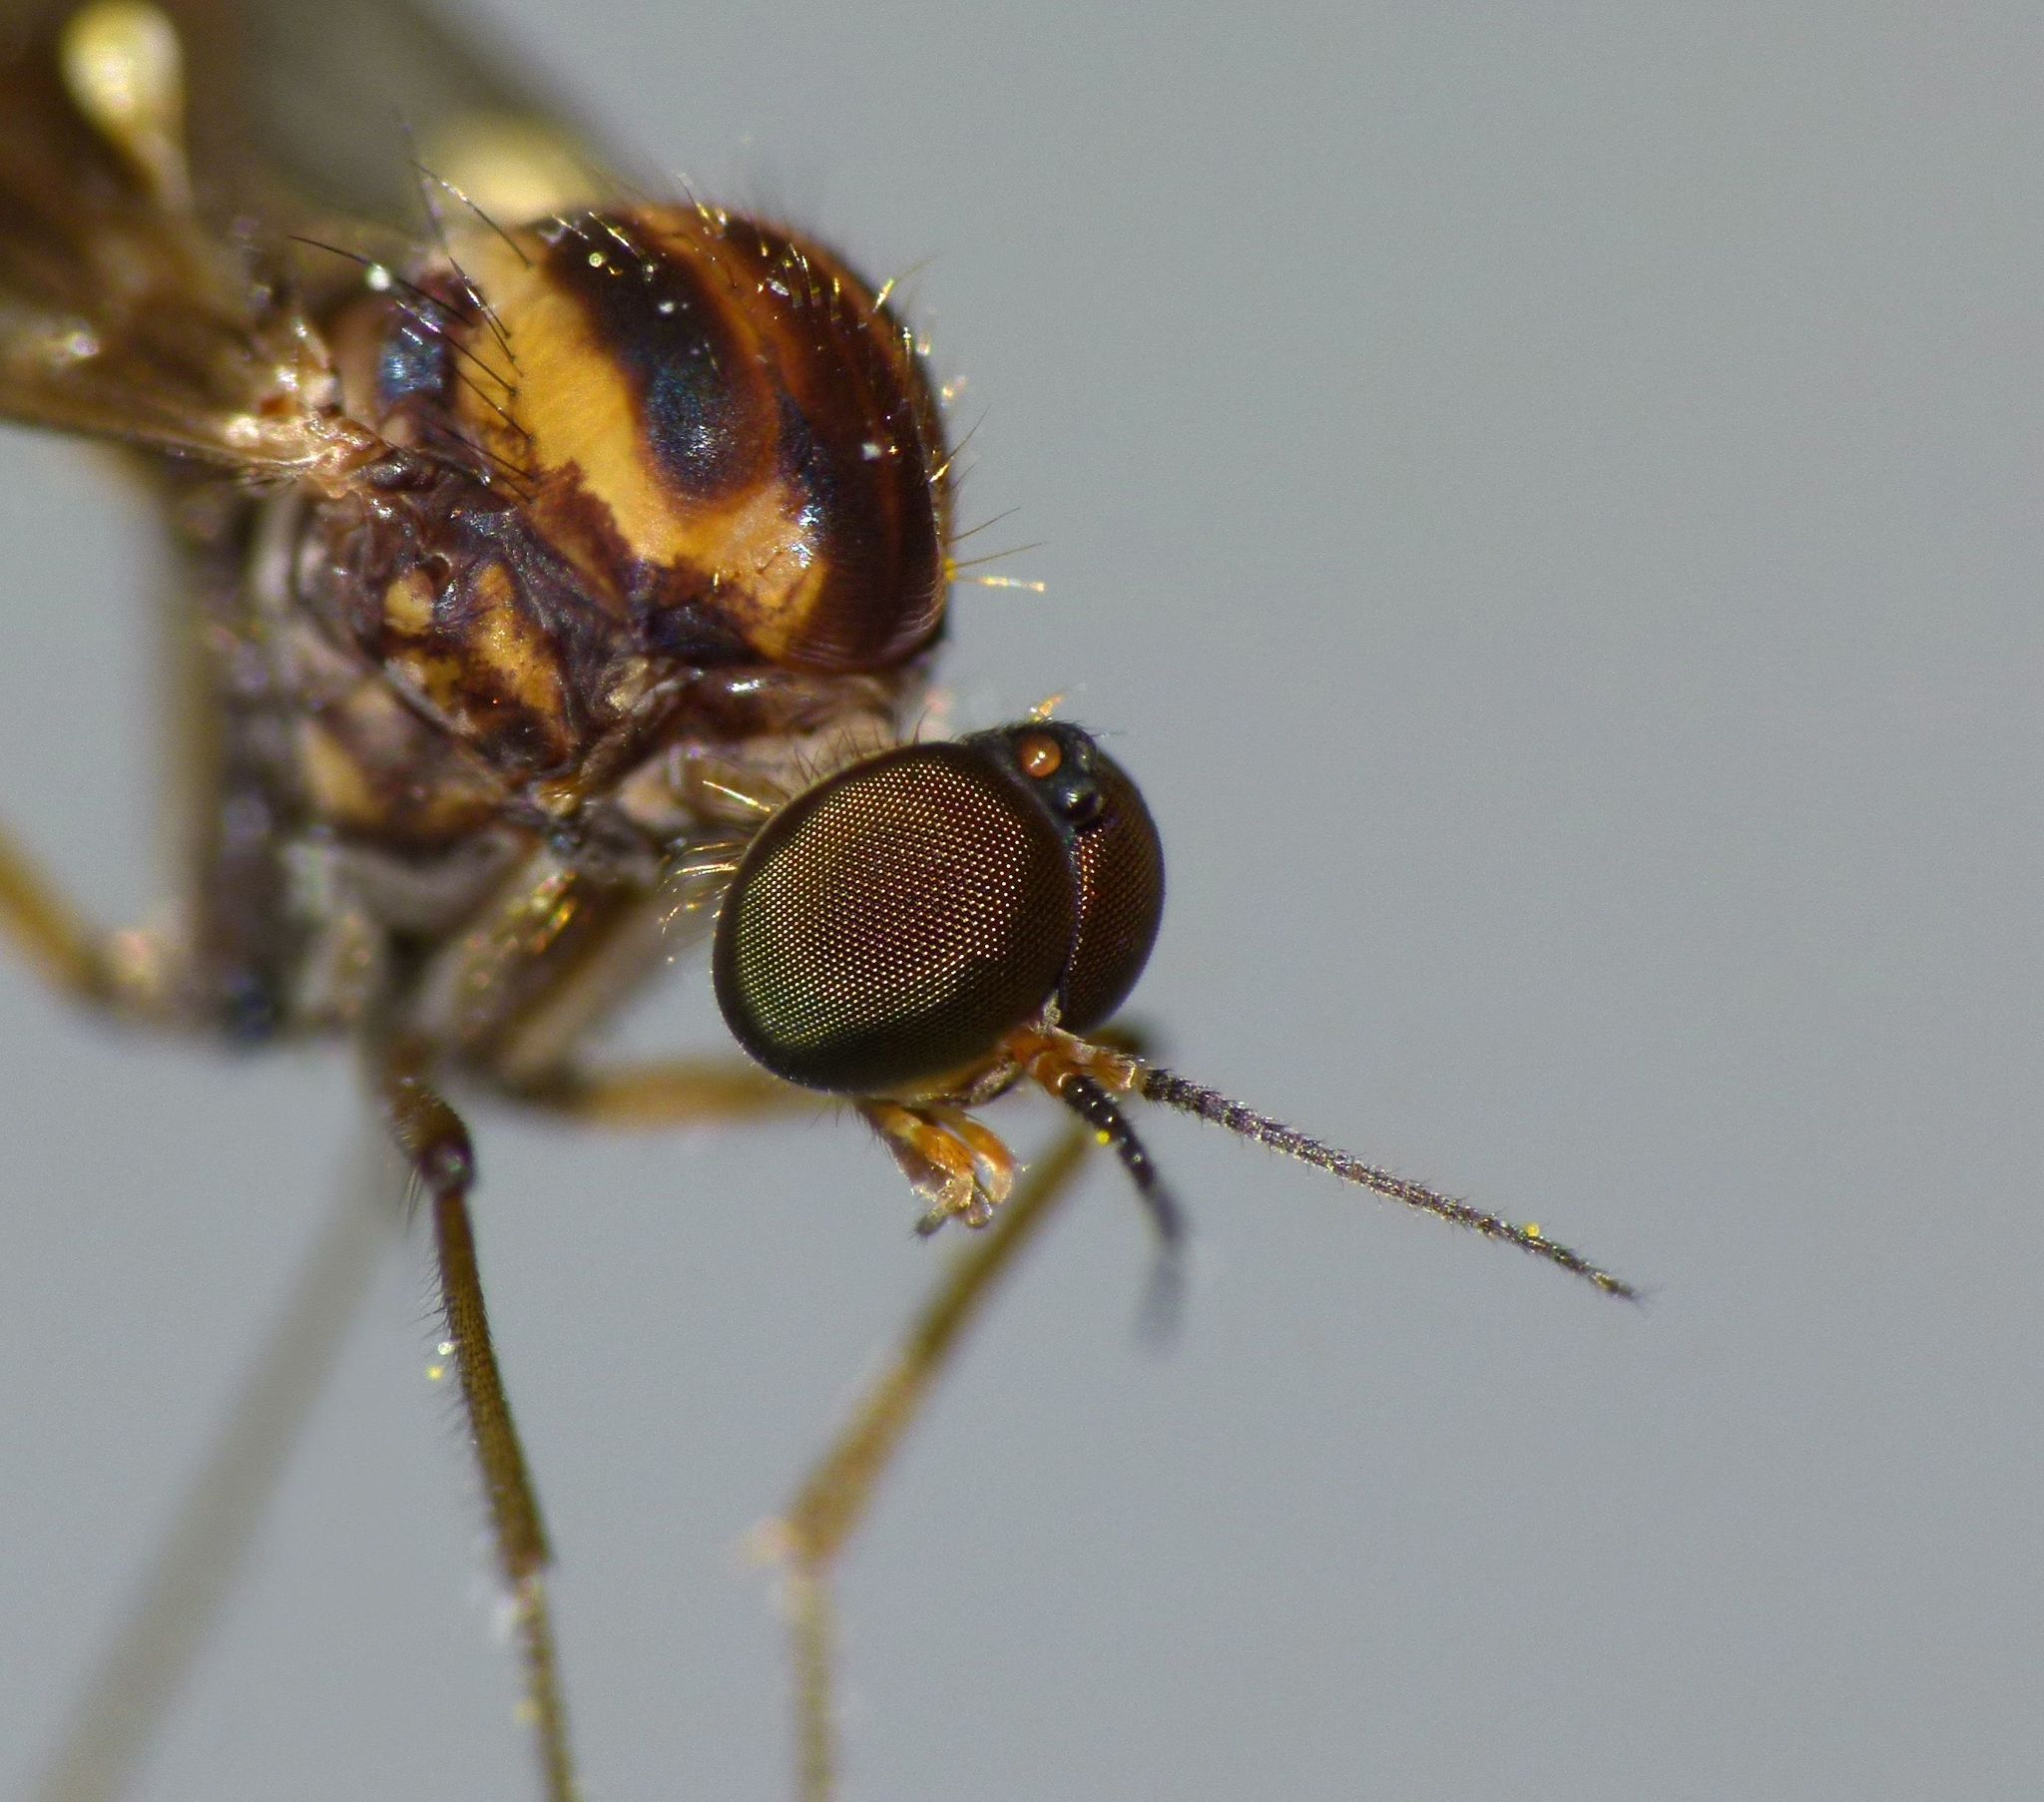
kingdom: Animalia
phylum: Arthropoda
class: Insecta
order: Diptera
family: Anisopodidae
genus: Sylvicola
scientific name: Sylvicola notatus
